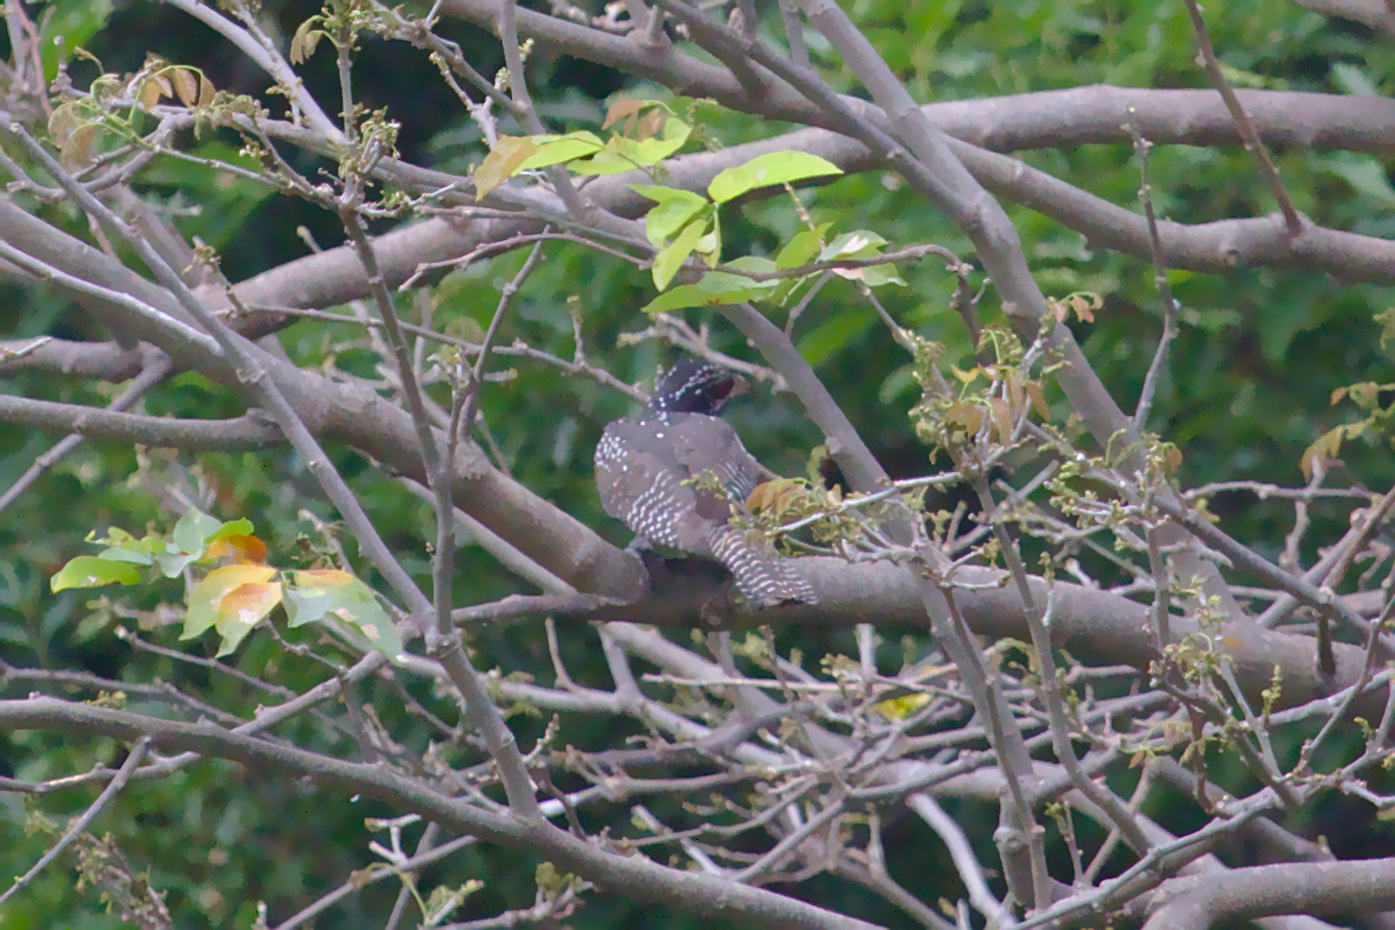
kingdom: Animalia
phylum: Chordata
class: Aves
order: Cuculiformes
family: Cuculidae
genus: Eudynamys
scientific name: Eudynamys scolopaceus
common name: Asian koel
